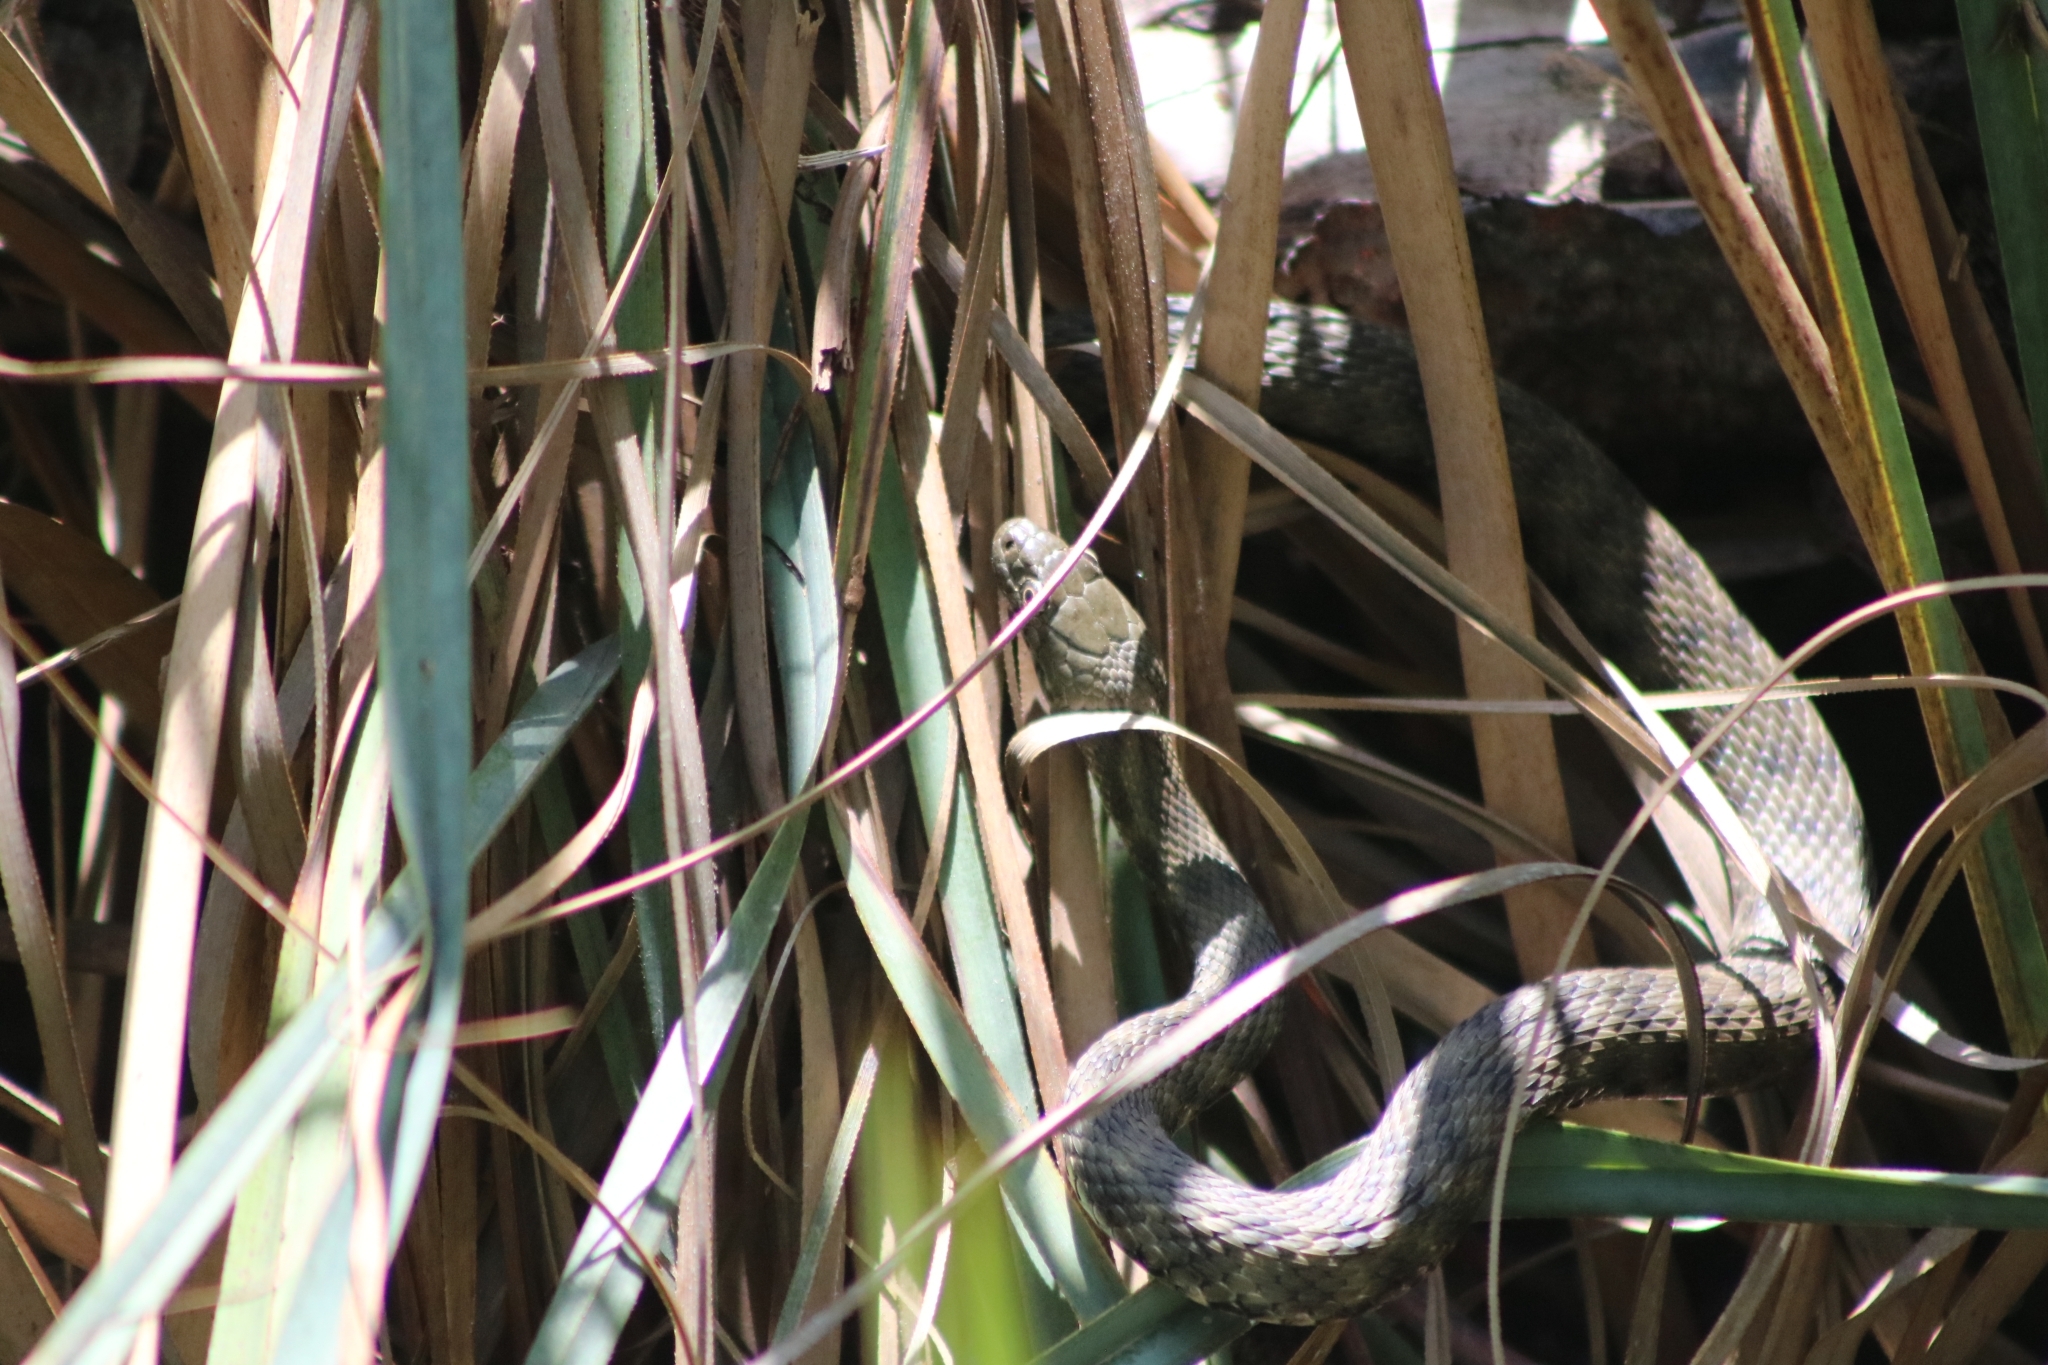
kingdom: Animalia
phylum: Chordata
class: Squamata
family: Colubridae
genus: Natrix
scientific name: Natrix tessellata
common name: Dice snake
